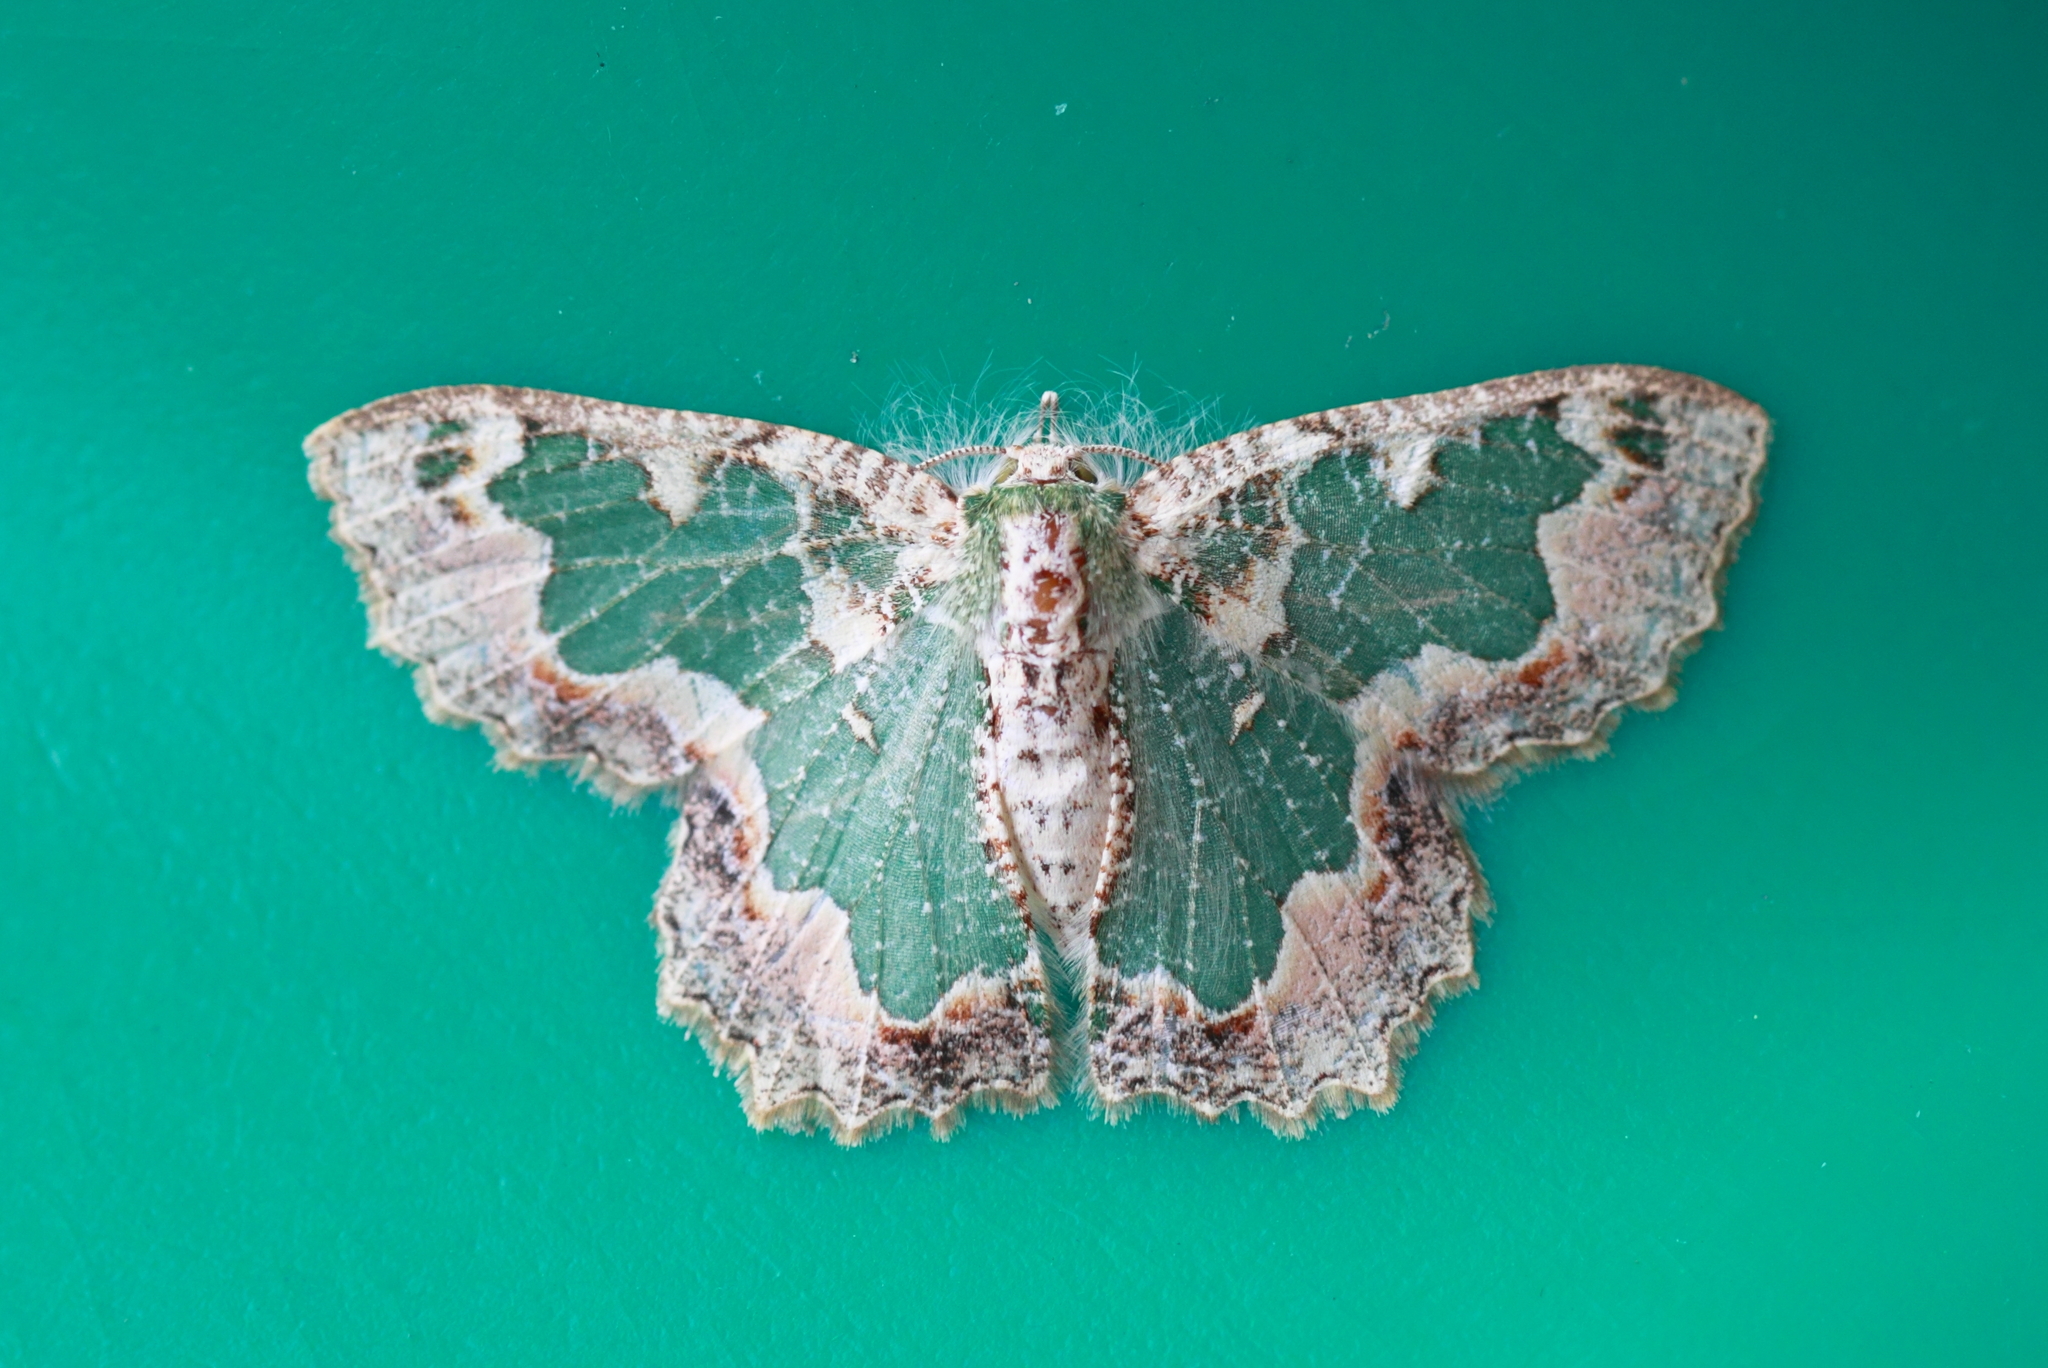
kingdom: Animalia
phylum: Arthropoda
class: Insecta
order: Lepidoptera
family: Geometridae
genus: Eucyclodes
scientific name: Eucyclodes pieroides
